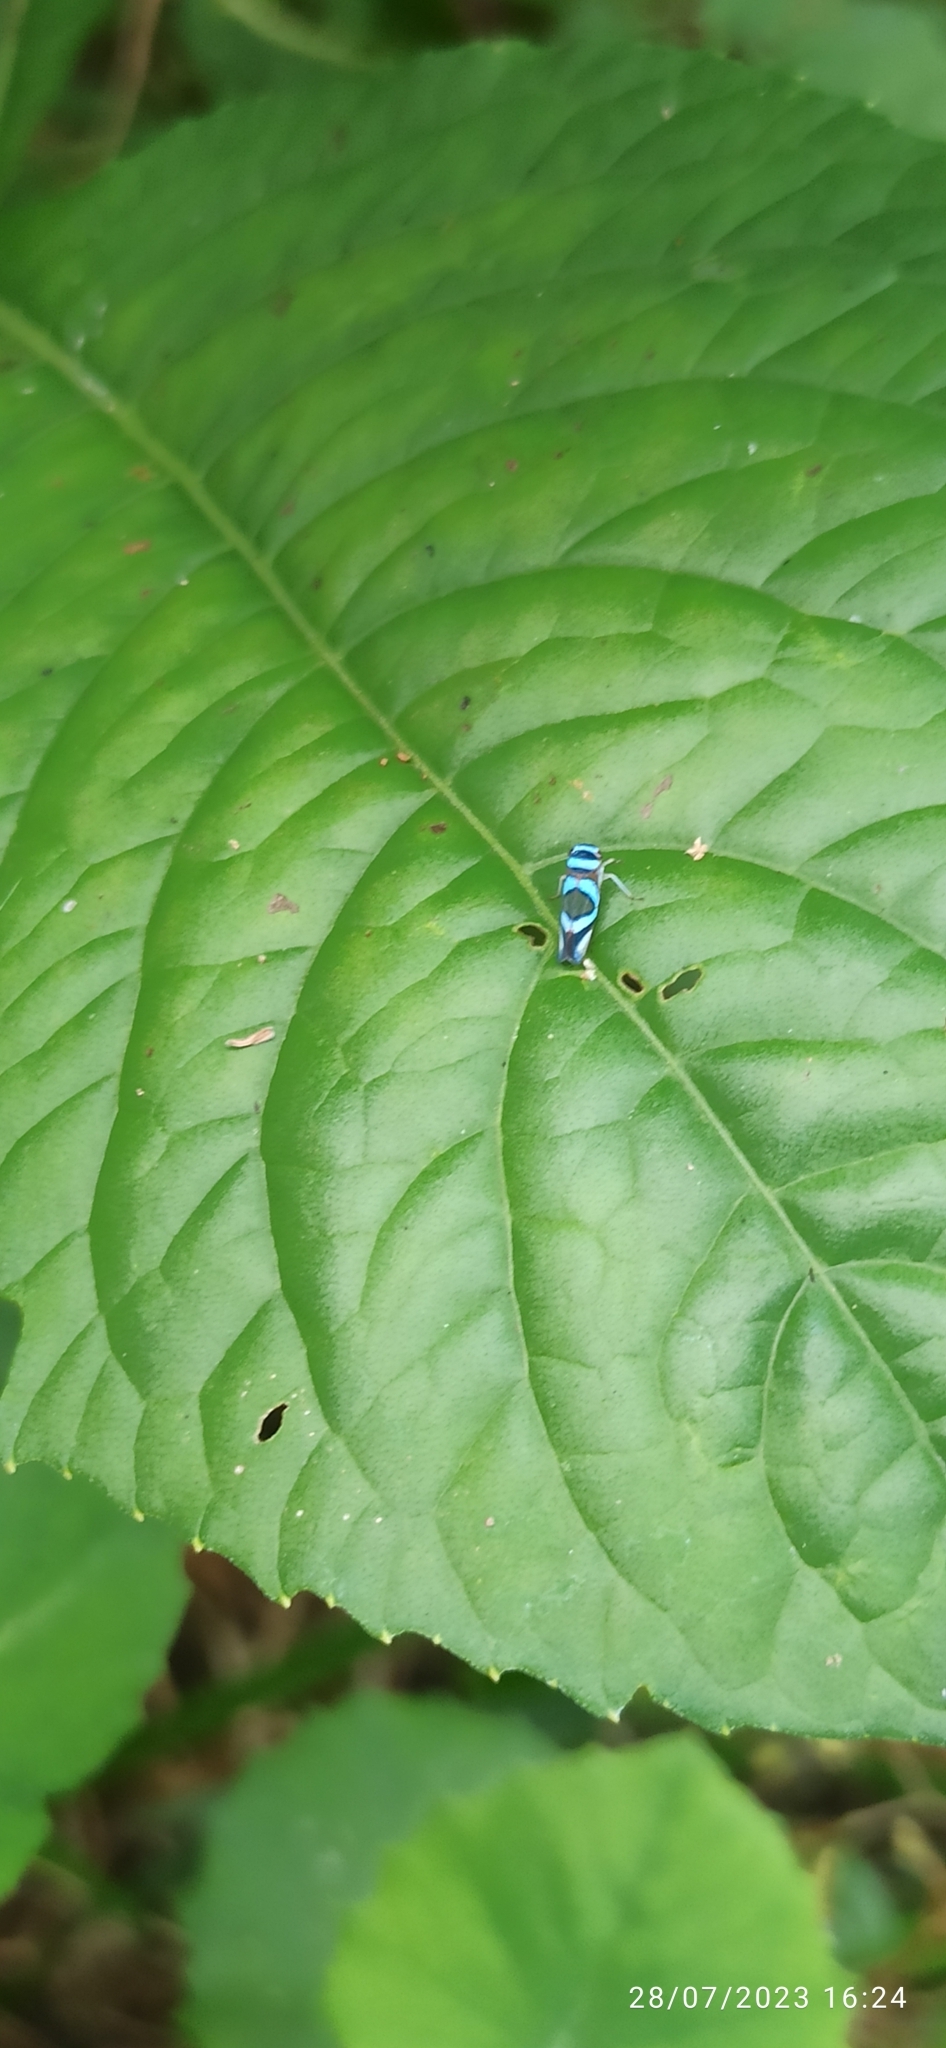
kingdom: Animalia
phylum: Arthropoda
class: Insecta
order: Hemiptera
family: Cicadellidae
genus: Macugonalia
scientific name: Macugonalia moesta
